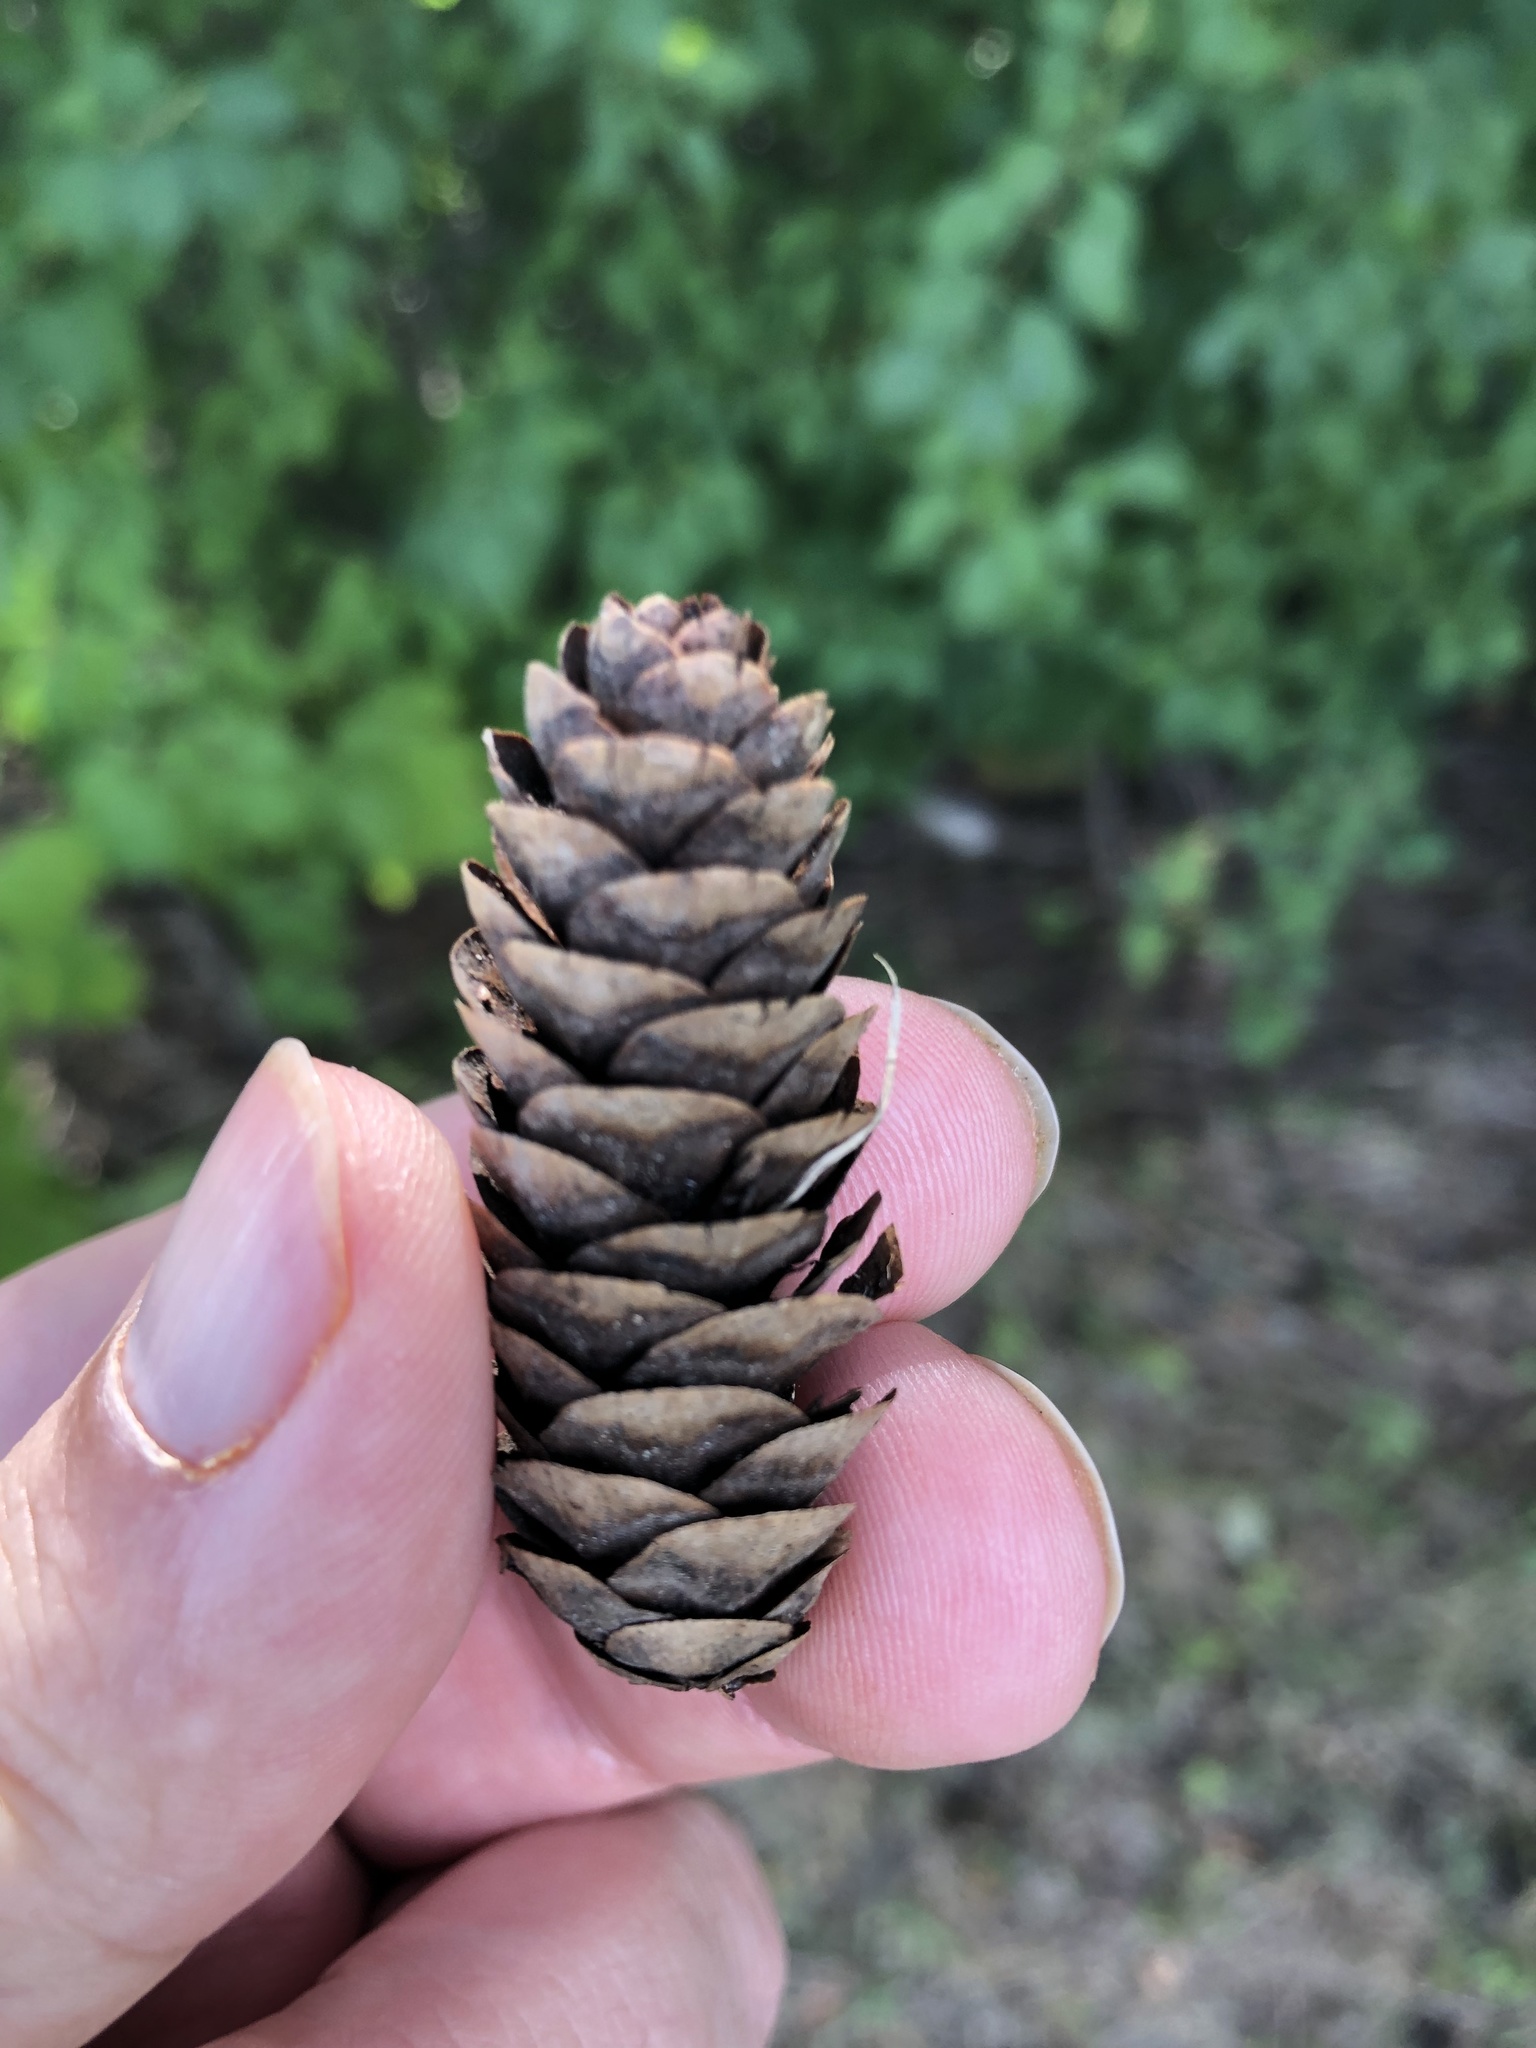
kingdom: Plantae
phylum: Tracheophyta
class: Pinopsida
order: Pinales
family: Pinaceae
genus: Picea
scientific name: Picea glauca
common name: White spruce
